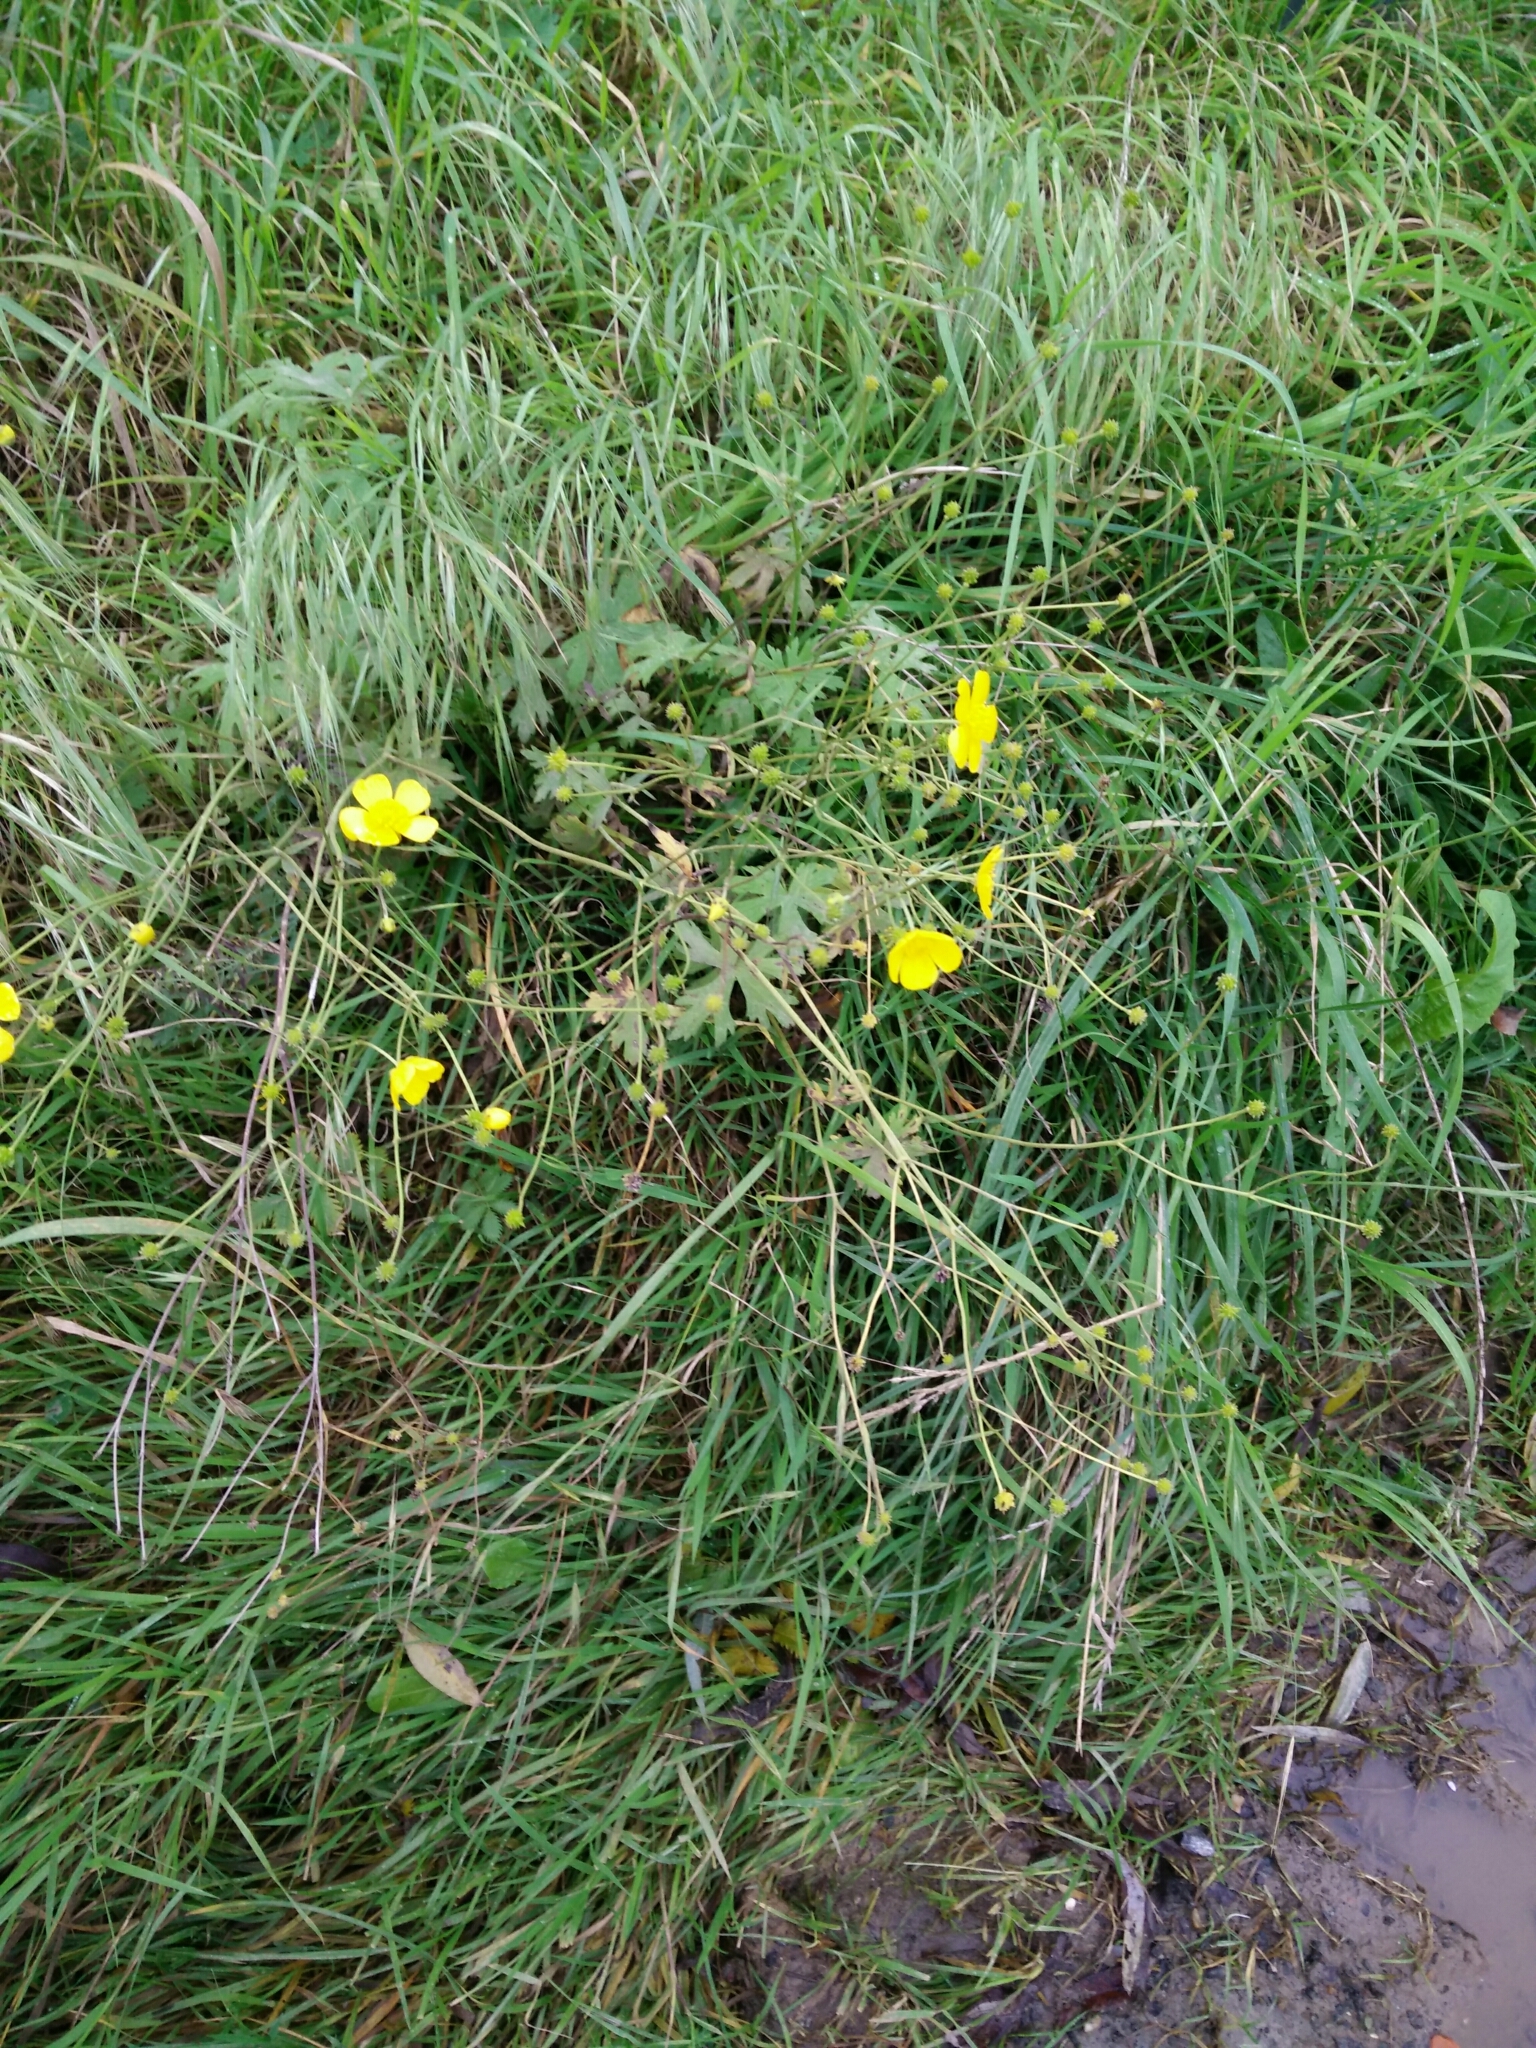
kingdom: Plantae
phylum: Tracheophyta
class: Magnoliopsida
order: Ranunculales
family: Ranunculaceae
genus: Ranunculus
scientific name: Ranunculus acris
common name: Meadow buttercup
